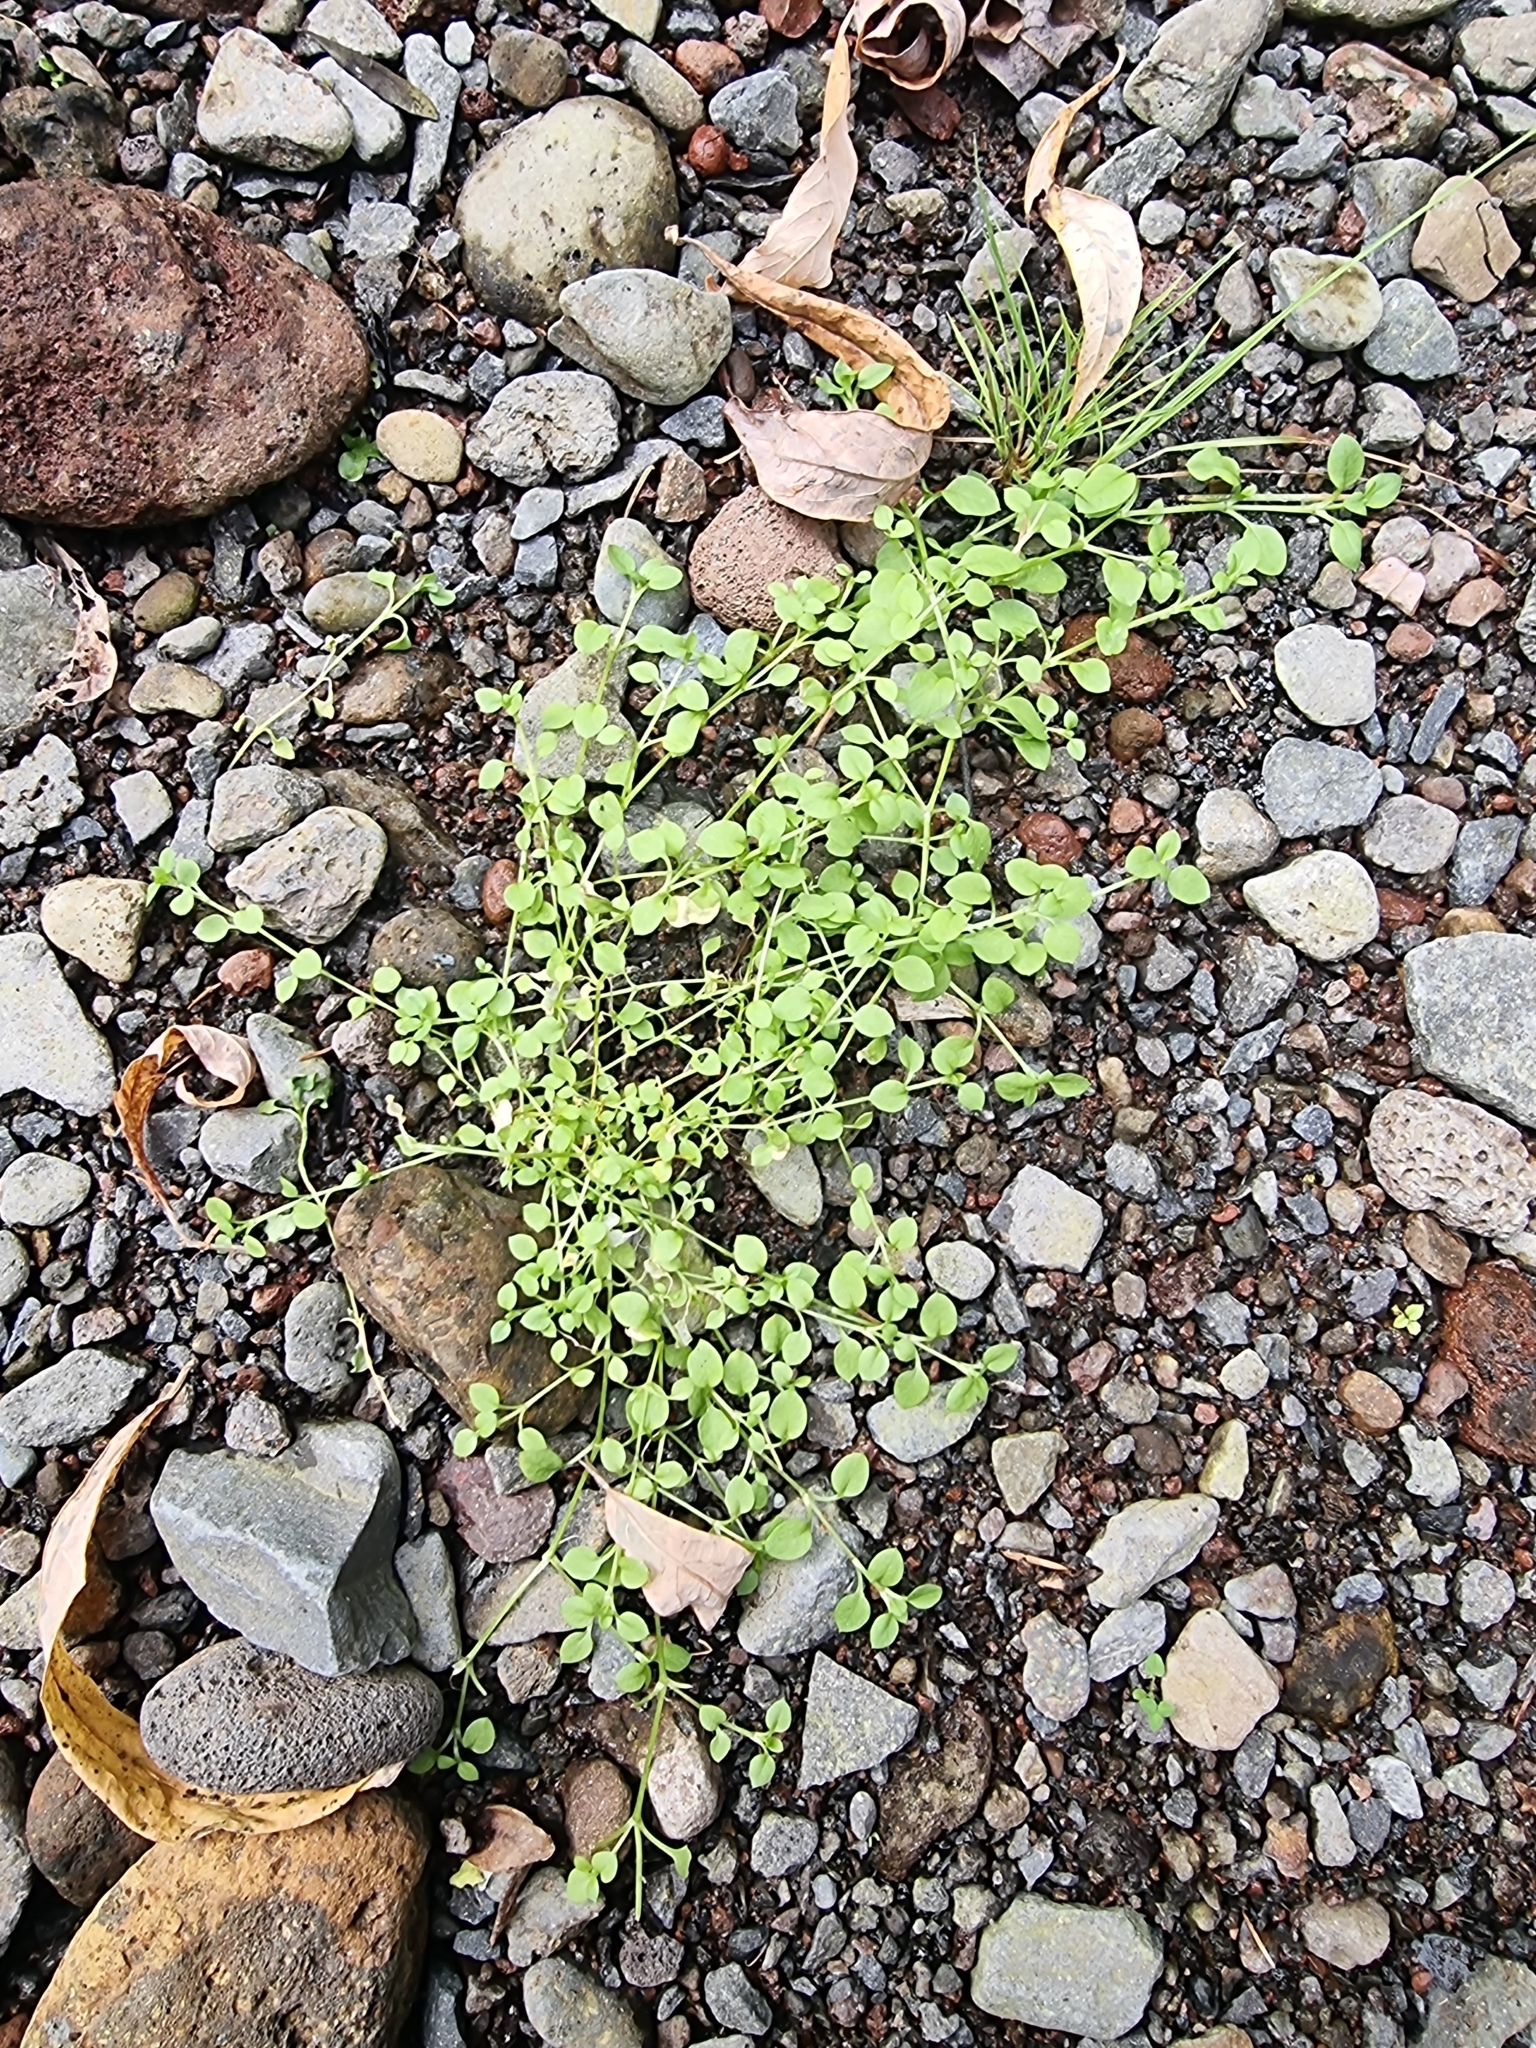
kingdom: Plantae
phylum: Tracheophyta
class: Magnoliopsida
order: Caryophyllales
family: Caryophyllaceae
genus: Stellaria
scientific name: Stellaria media
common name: Common chickweed
